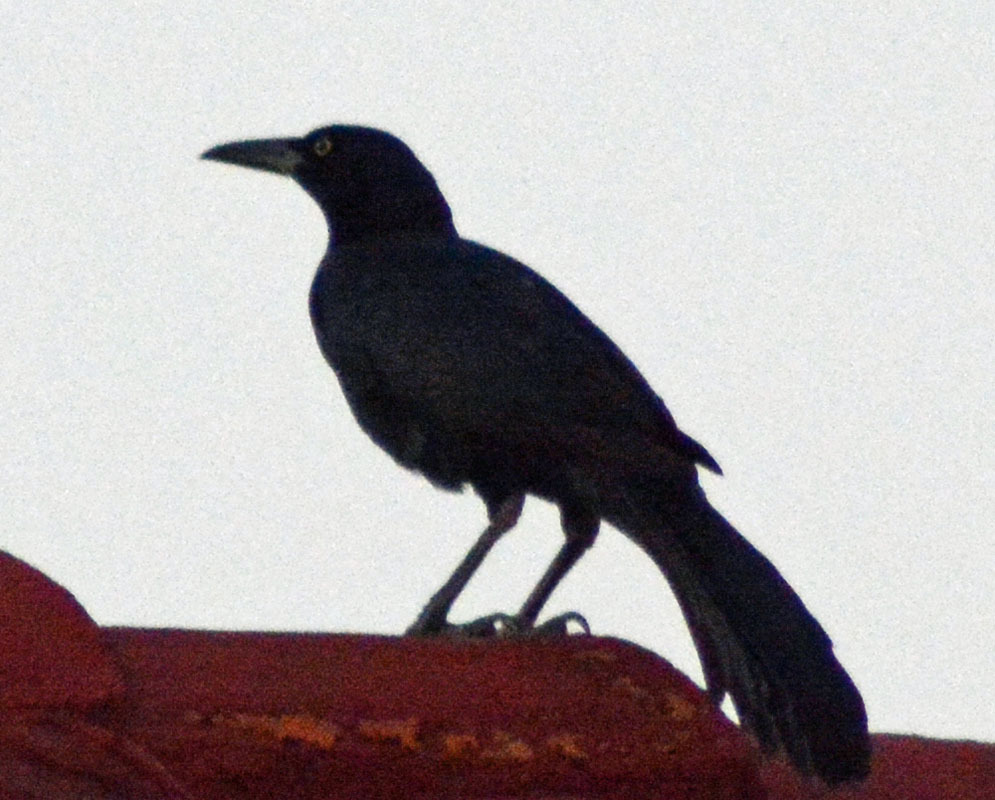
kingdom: Animalia
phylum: Chordata
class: Aves
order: Passeriformes
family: Icteridae
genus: Quiscalus
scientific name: Quiscalus mexicanus
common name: Great-tailed grackle
